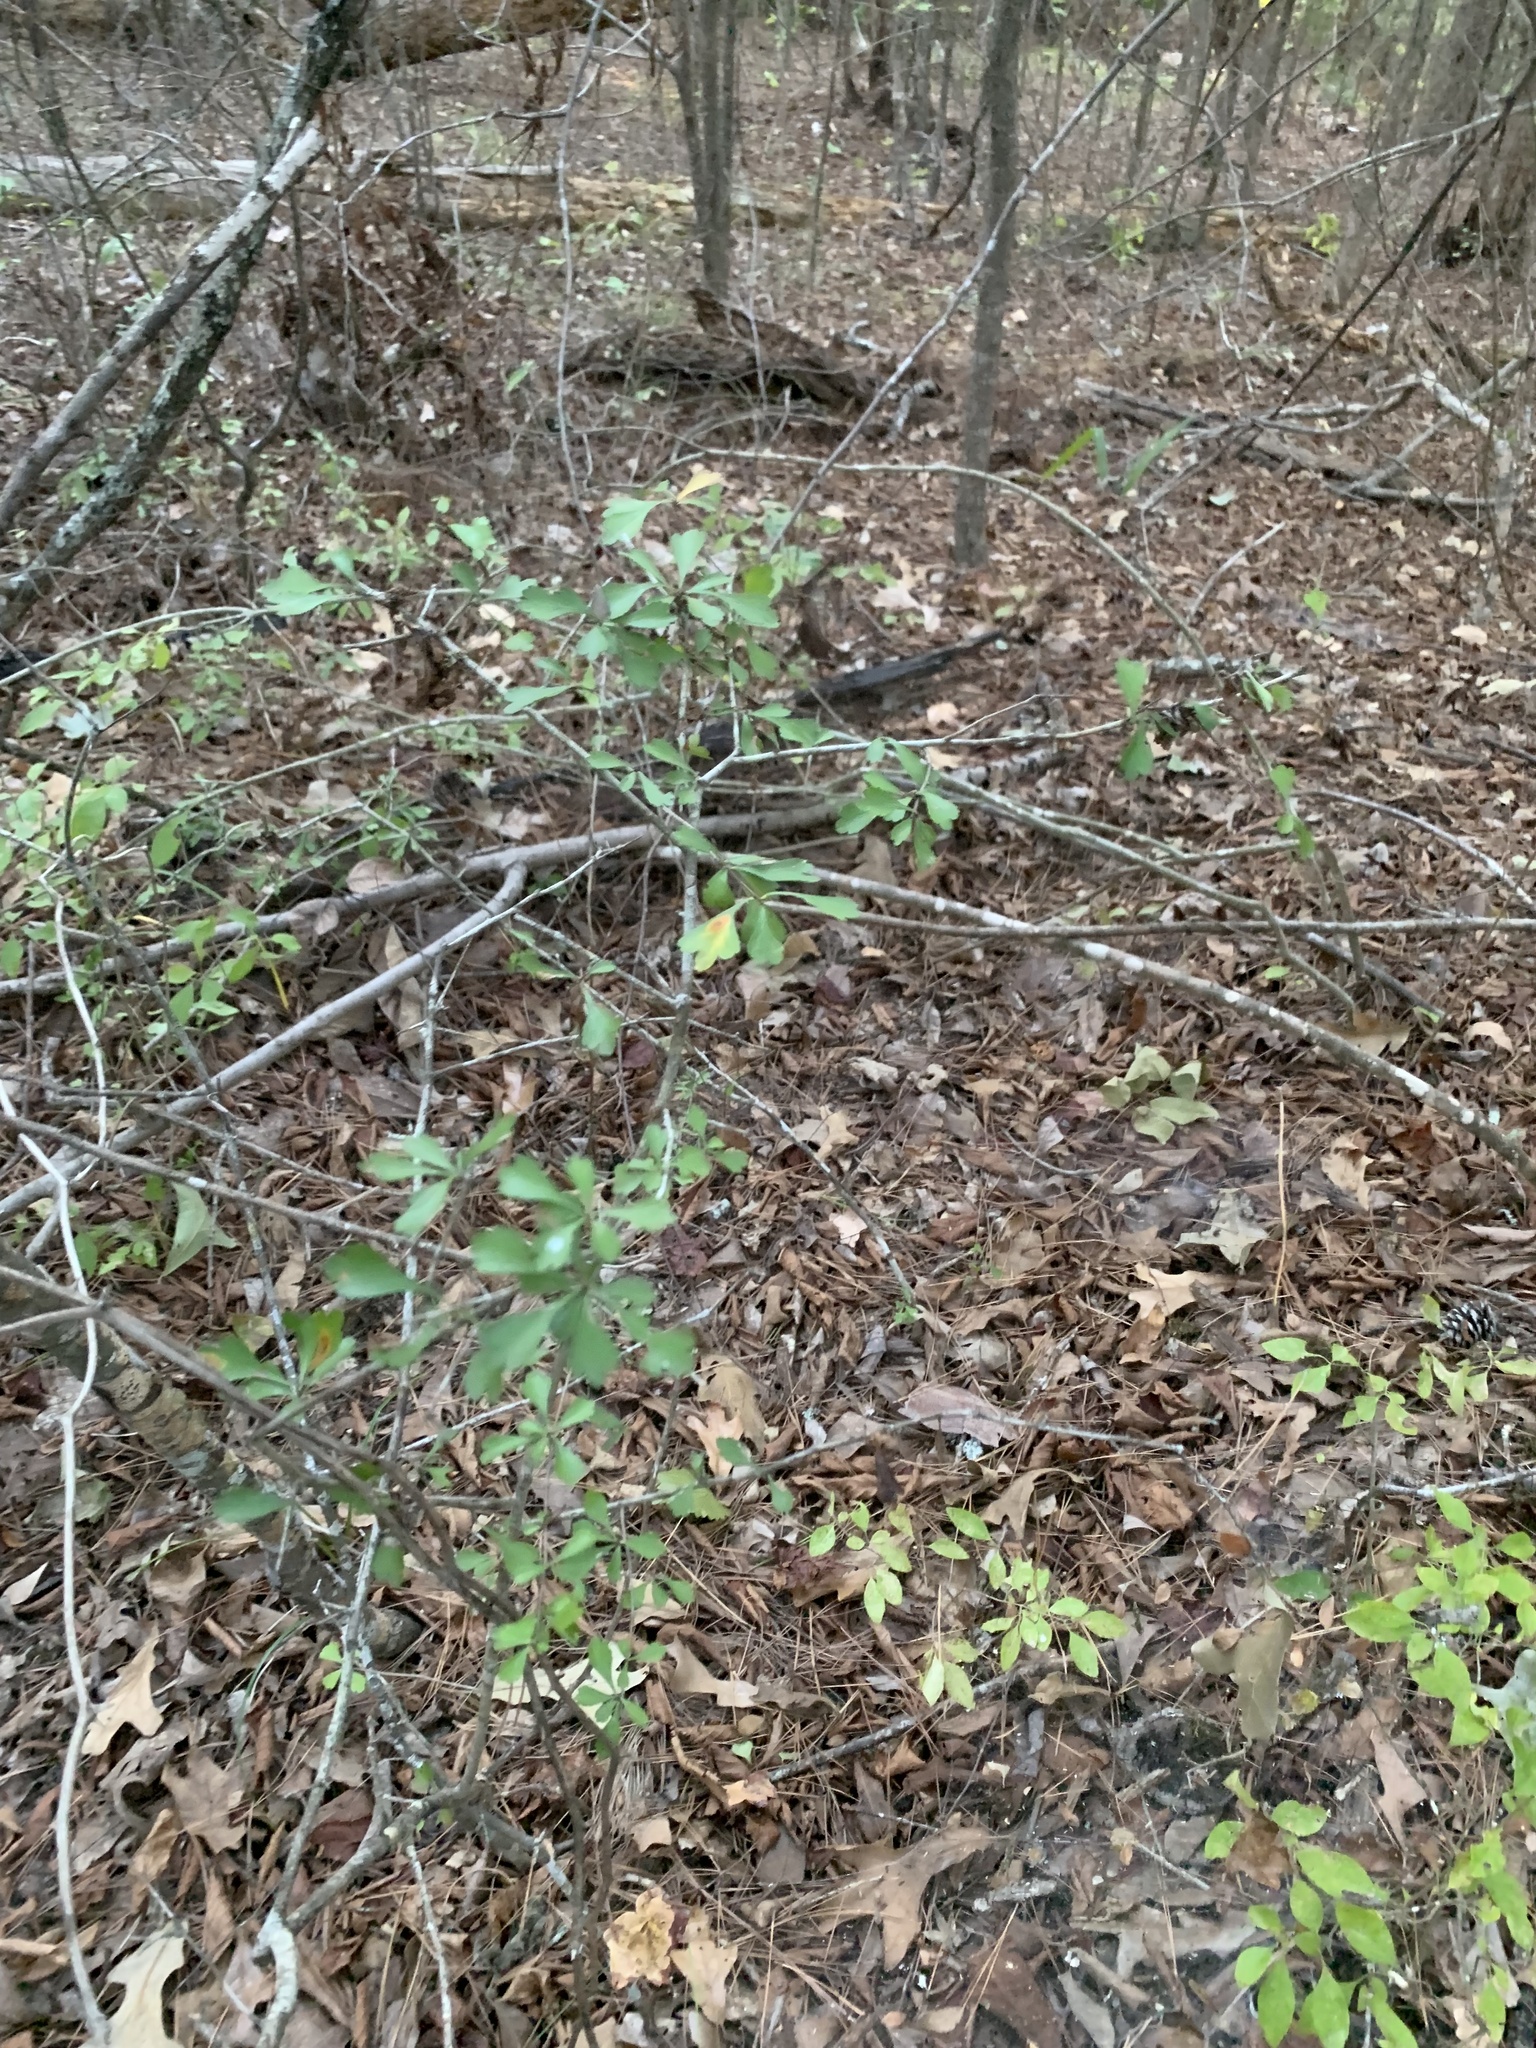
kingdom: Plantae
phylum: Tracheophyta
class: Magnoliopsida
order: Rosales
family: Rosaceae
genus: Crataegus
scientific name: Crataegus spathulata
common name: Littlehip hawthorn
